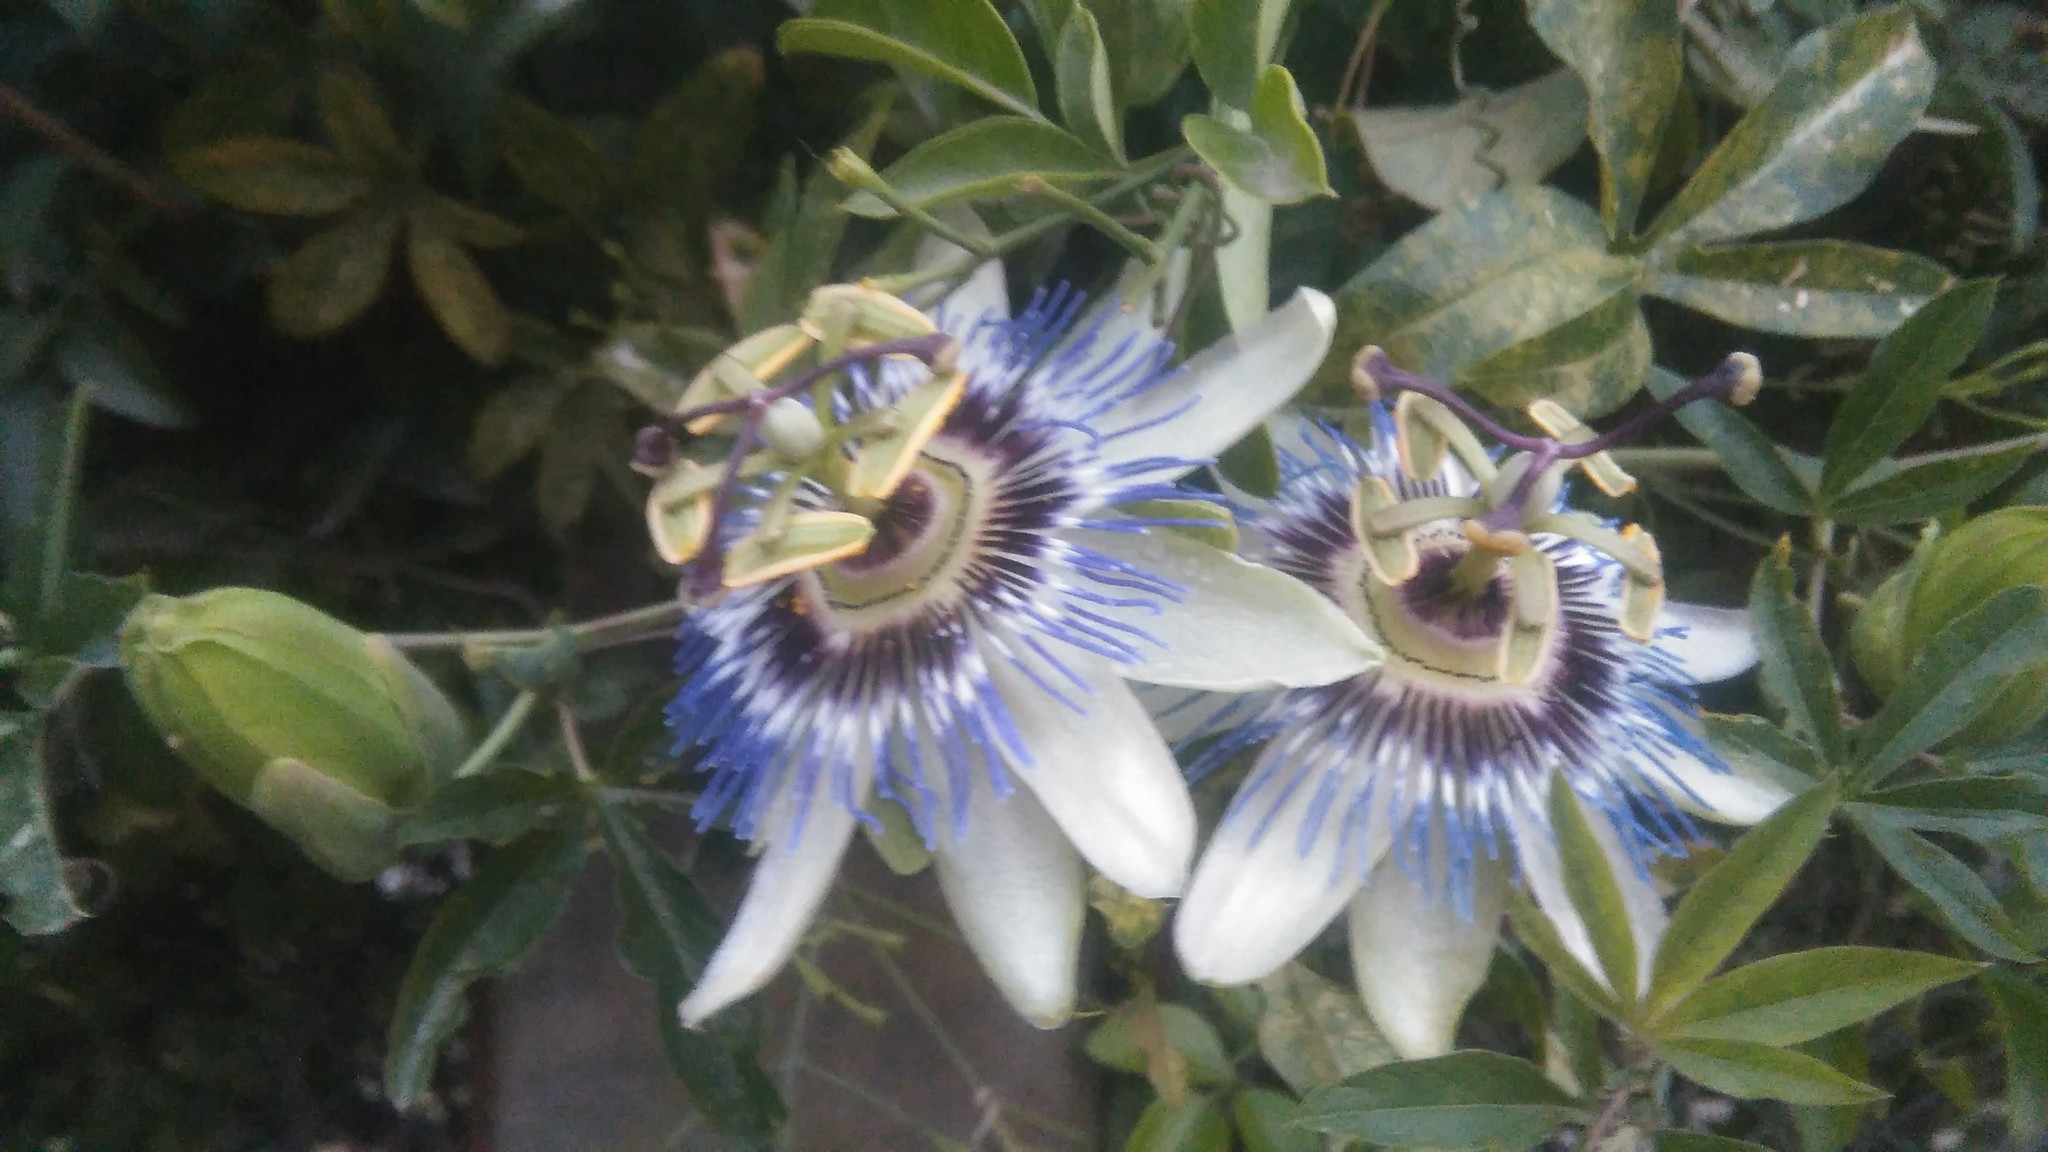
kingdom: Plantae
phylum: Tracheophyta
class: Magnoliopsida
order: Malpighiales
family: Passifloraceae
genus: Passiflora
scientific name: Passiflora caerulea
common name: Blue passionflower
